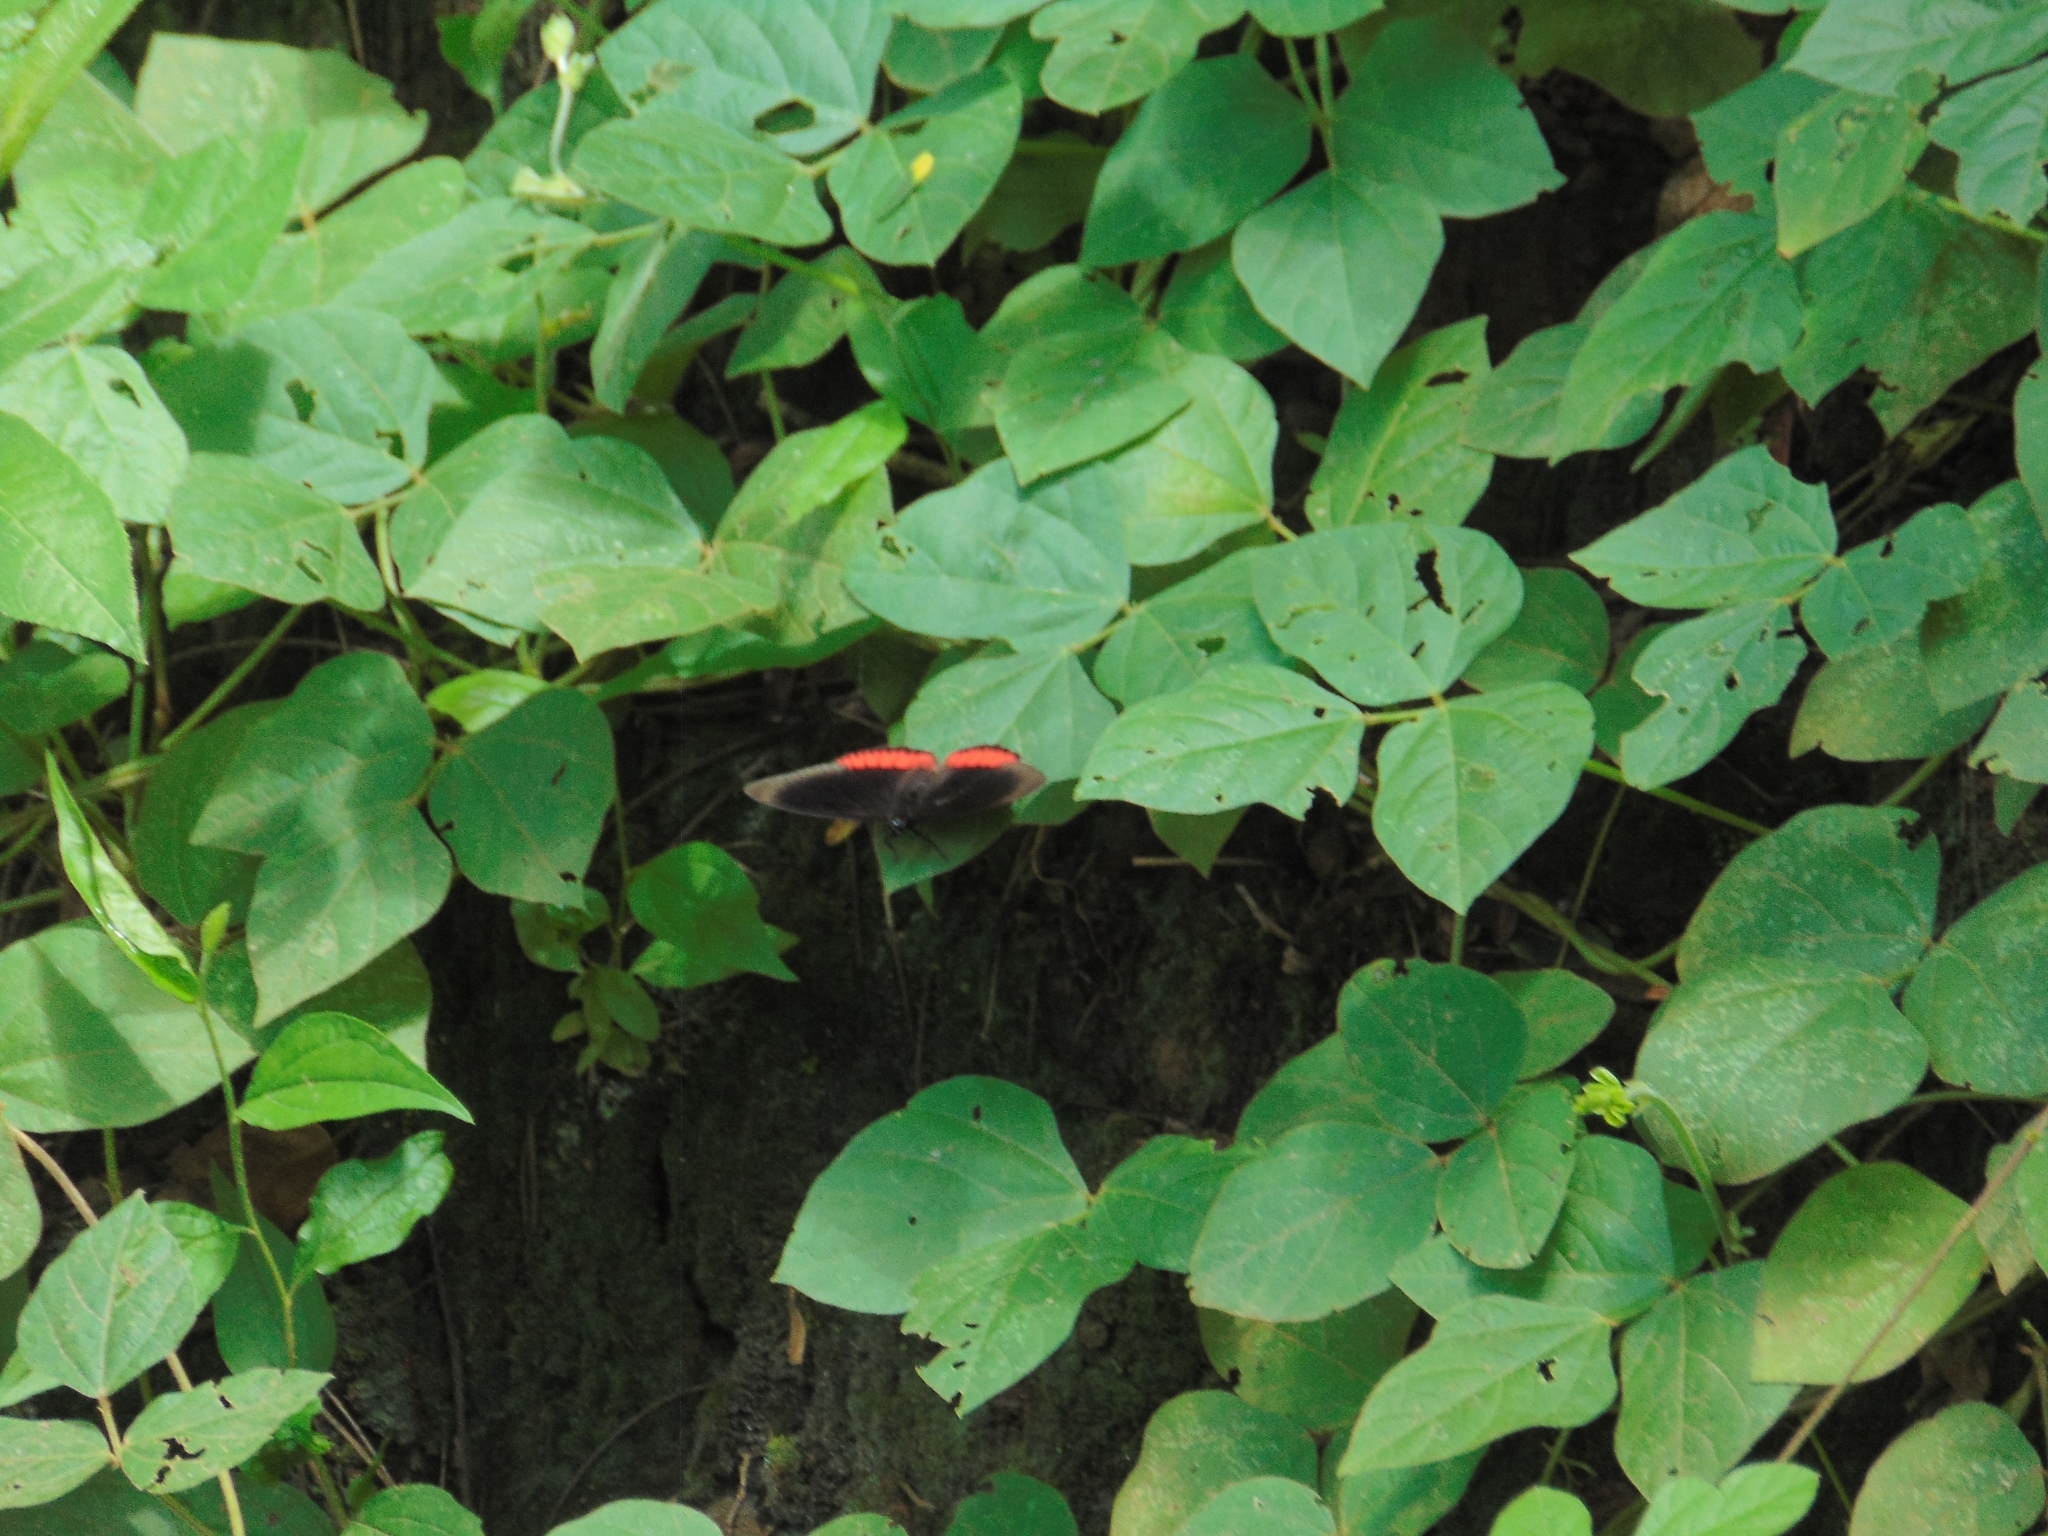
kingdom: Animalia
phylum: Arthropoda
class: Insecta
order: Lepidoptera
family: Sesiidae
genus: Sesia
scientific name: Sesia Biblis hyperia
